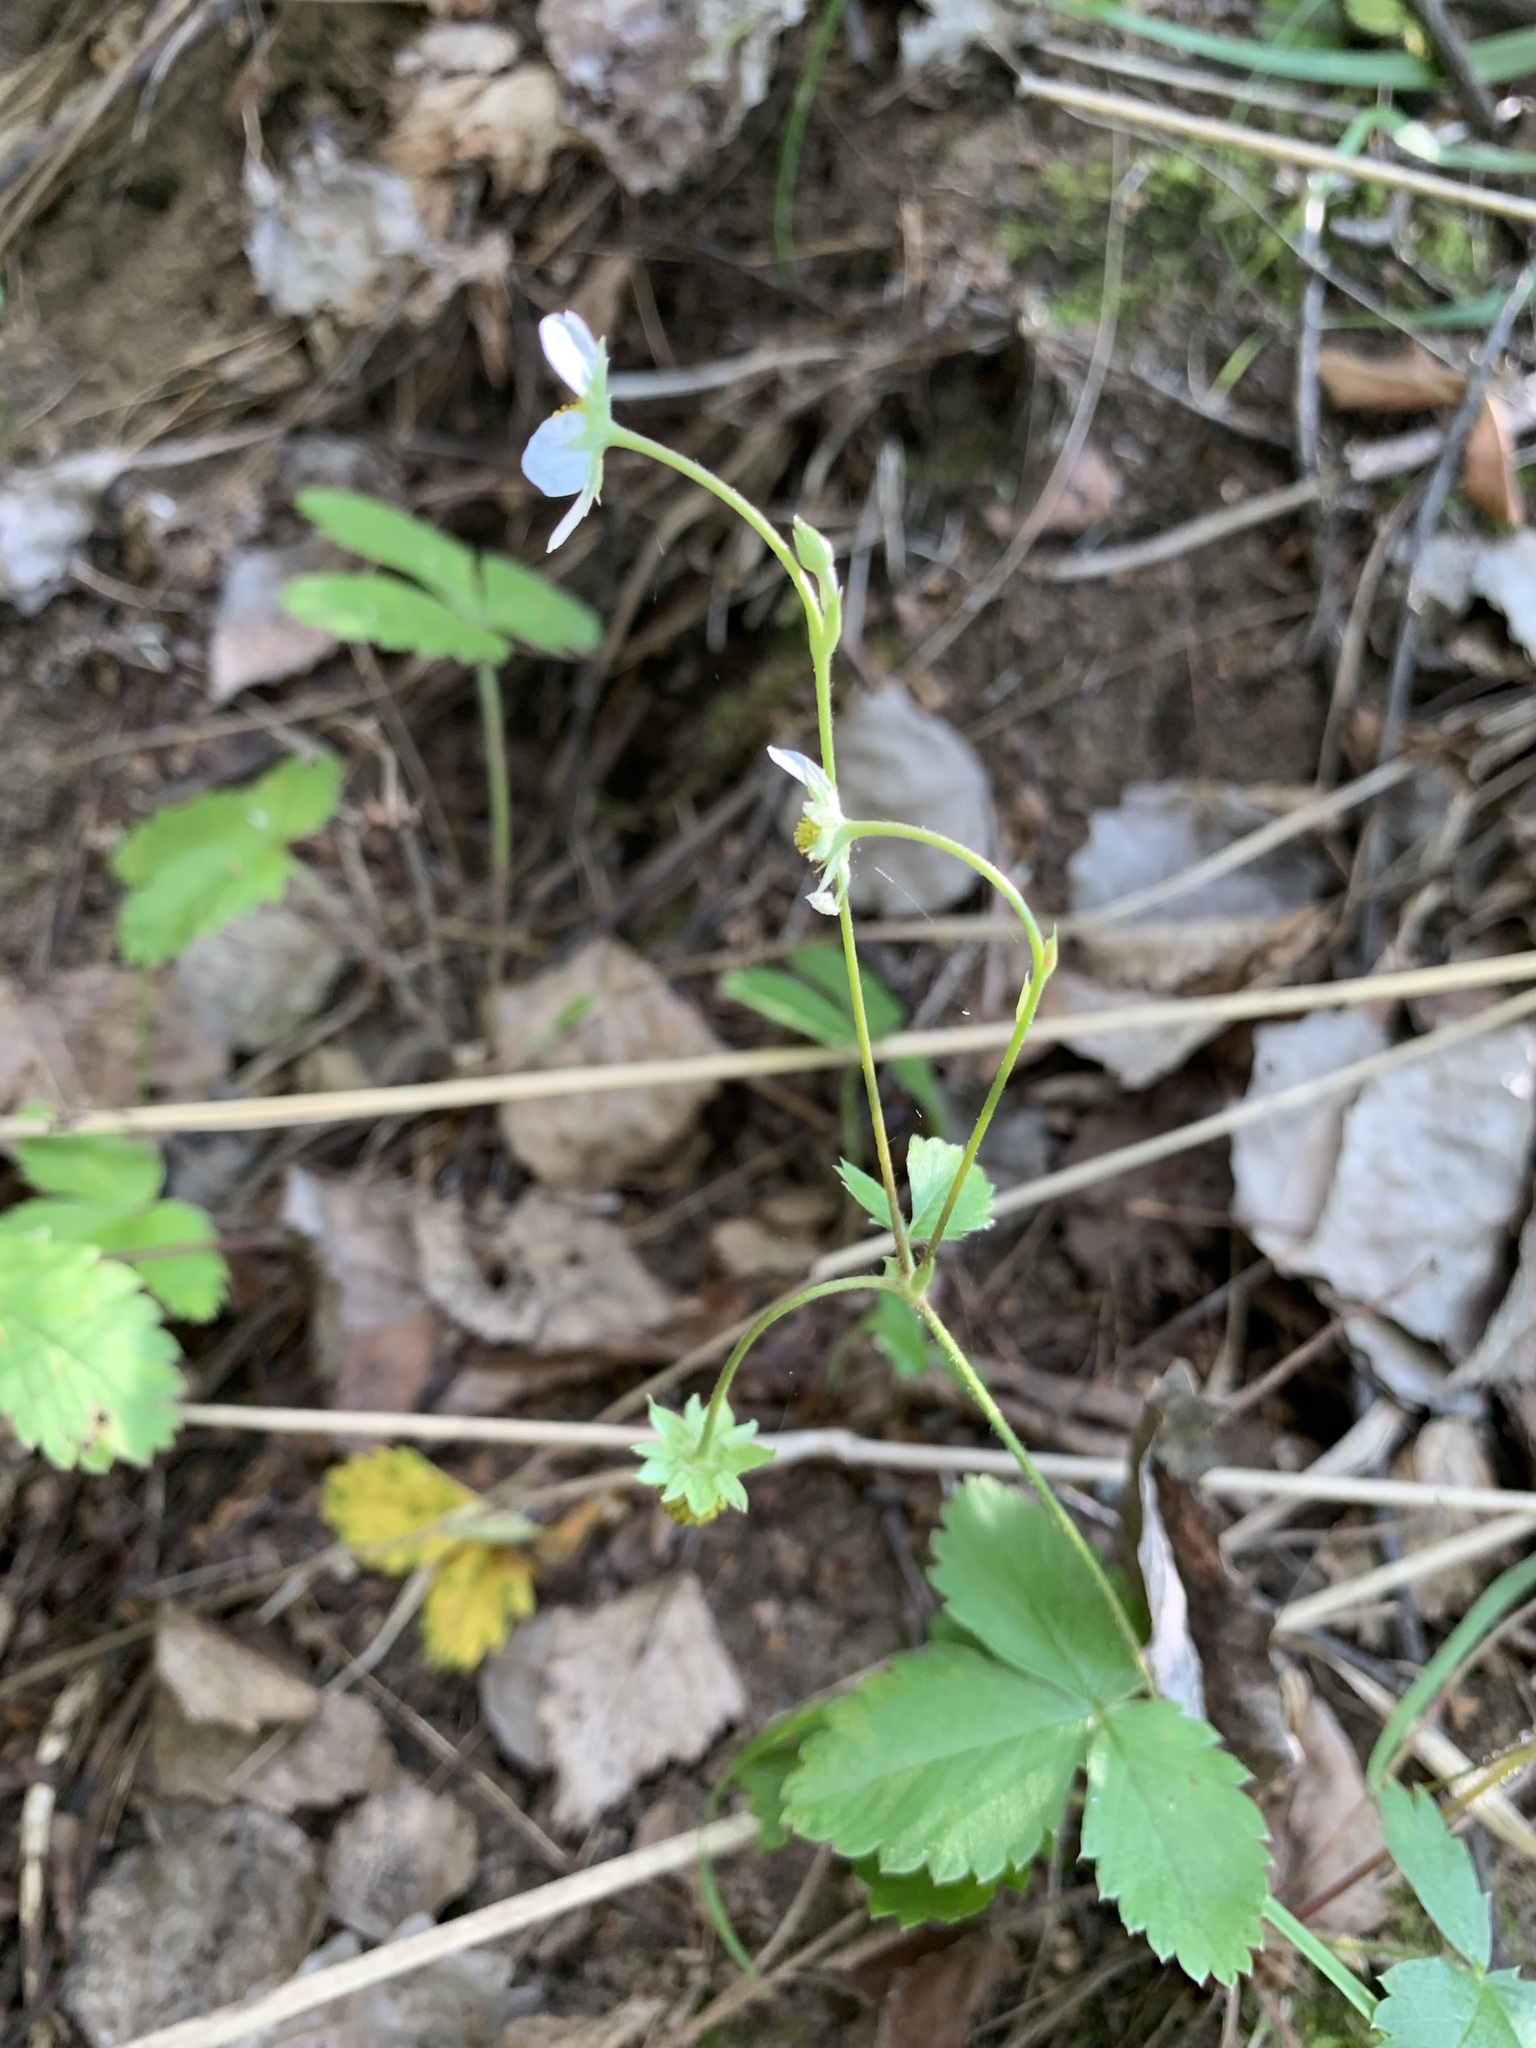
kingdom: Plantae
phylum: Tracheophyta
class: Magnoliopsida
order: Rosales
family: Rosaceae
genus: Fragaria
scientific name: Fragaria vesca
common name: Wild strawberry
